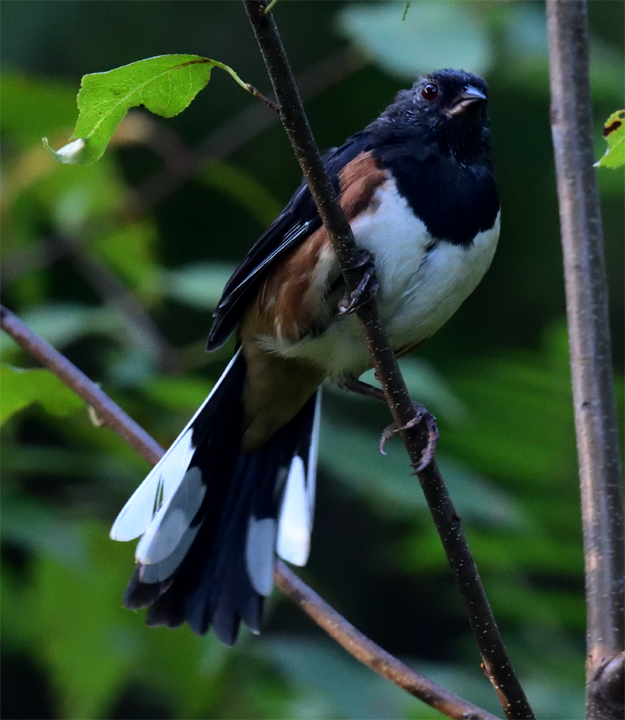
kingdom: Animalia
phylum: Chordata
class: Aves
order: Passeriformes
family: Passerellidae
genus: Pipilo
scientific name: Pipilo erythrophthalmus
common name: Eastern towhee
